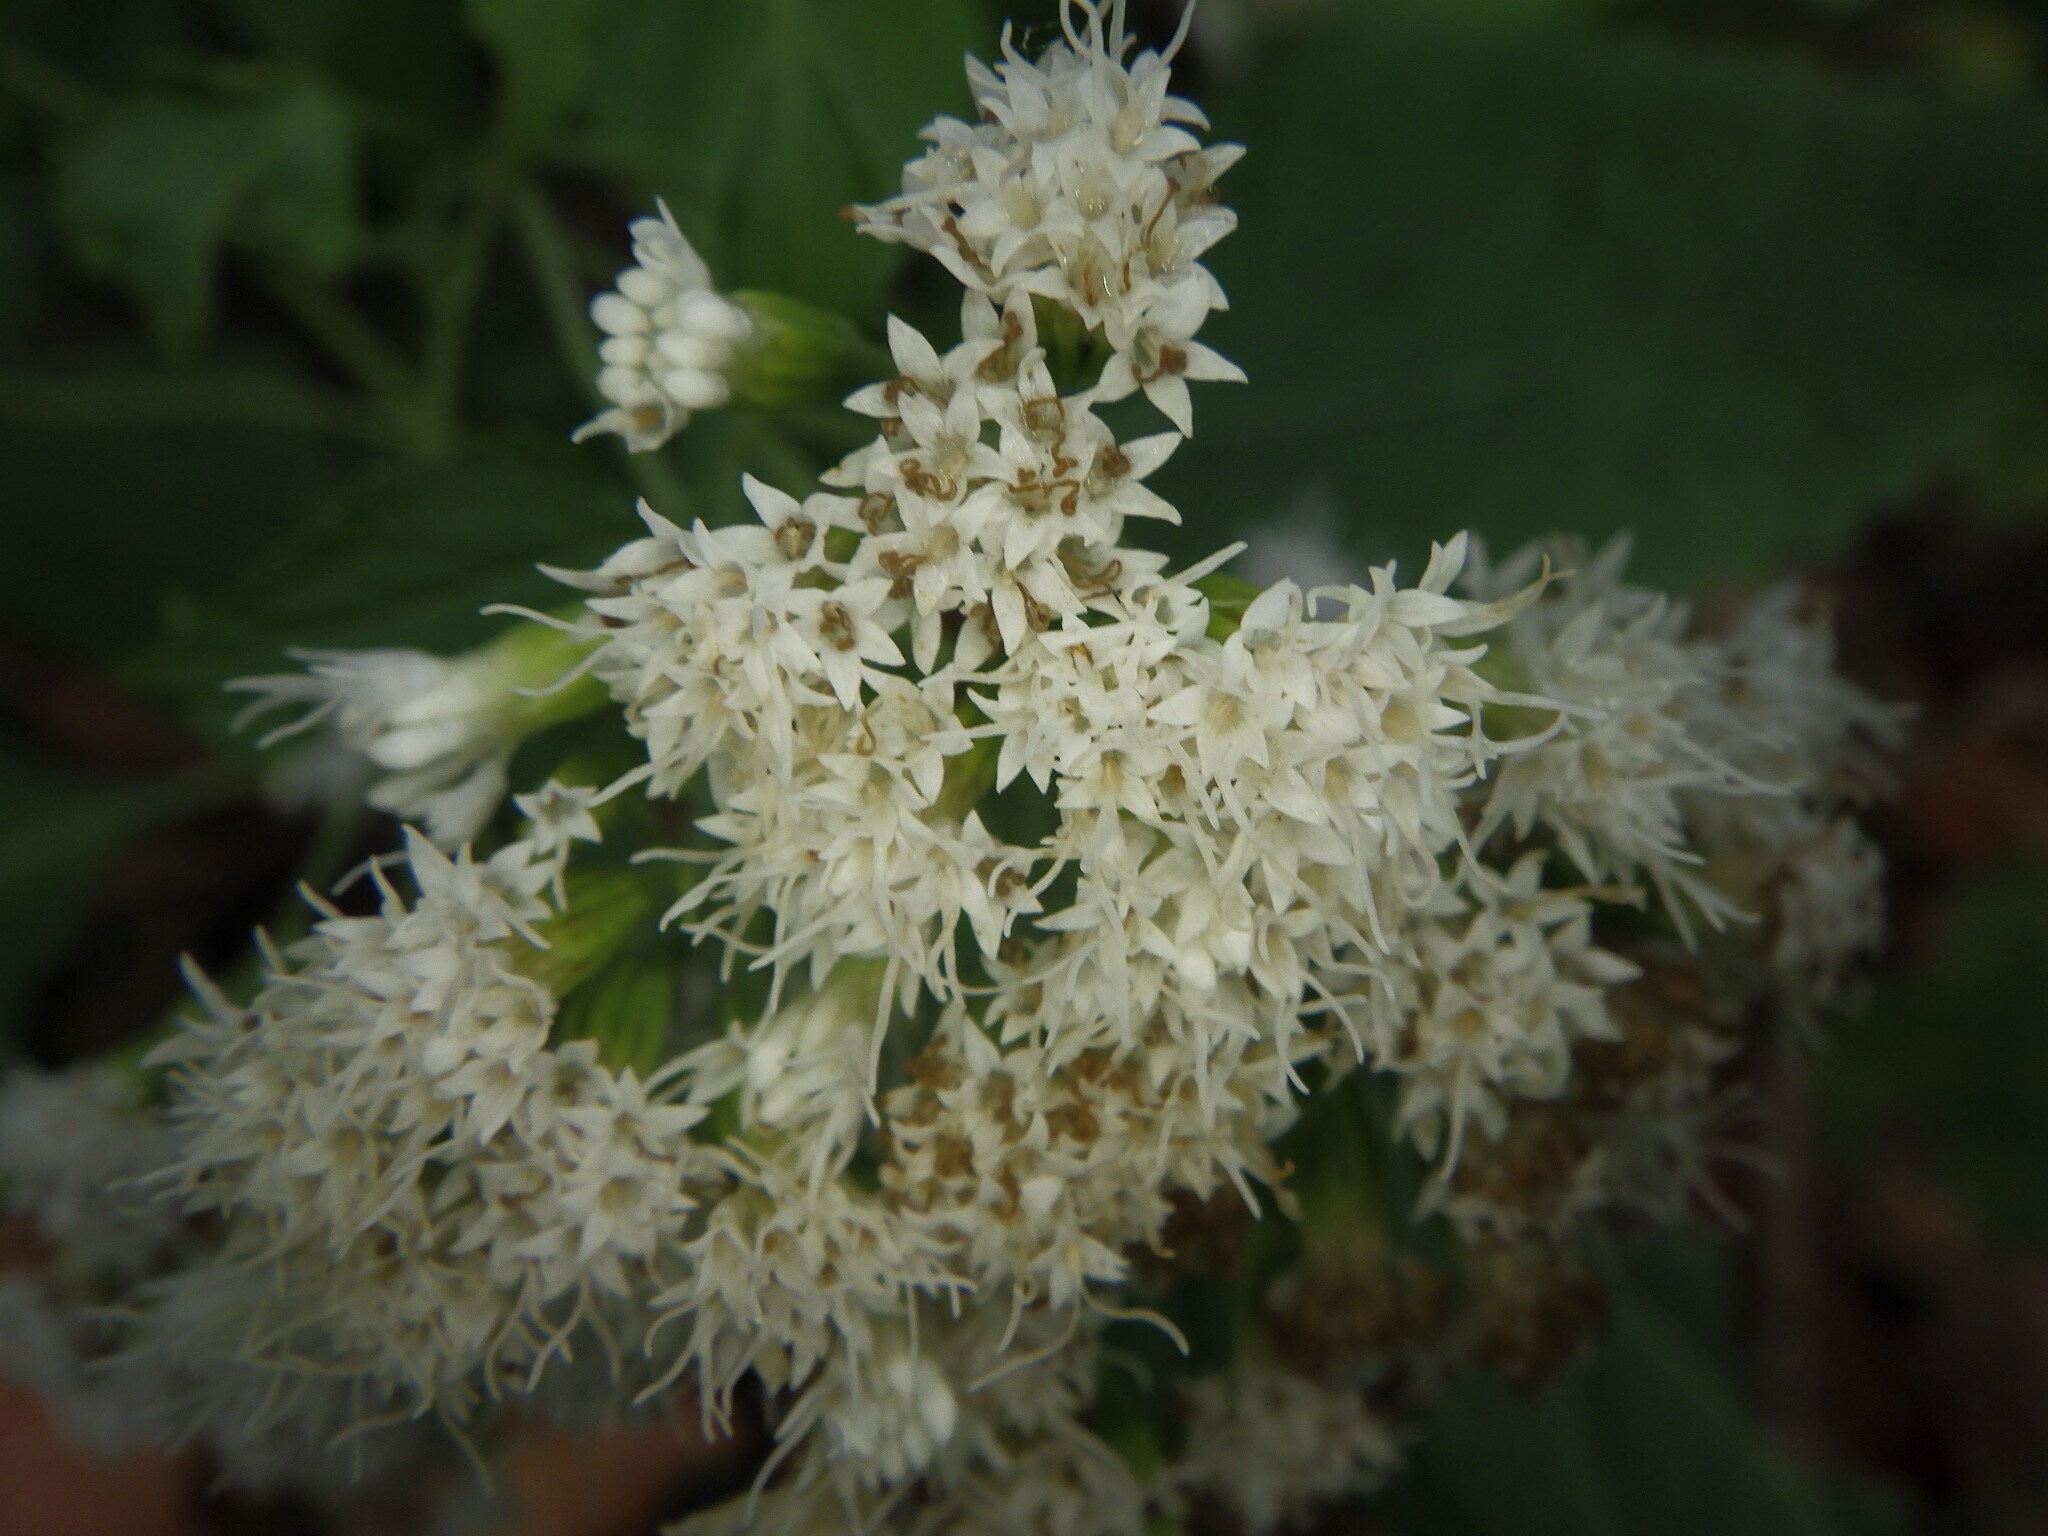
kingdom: Plantae
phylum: Tracheophyta
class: Magnoliopsida
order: Asterales
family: Asteraceae
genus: Ageratina
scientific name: Ageratina altissima
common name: White snakeroot
